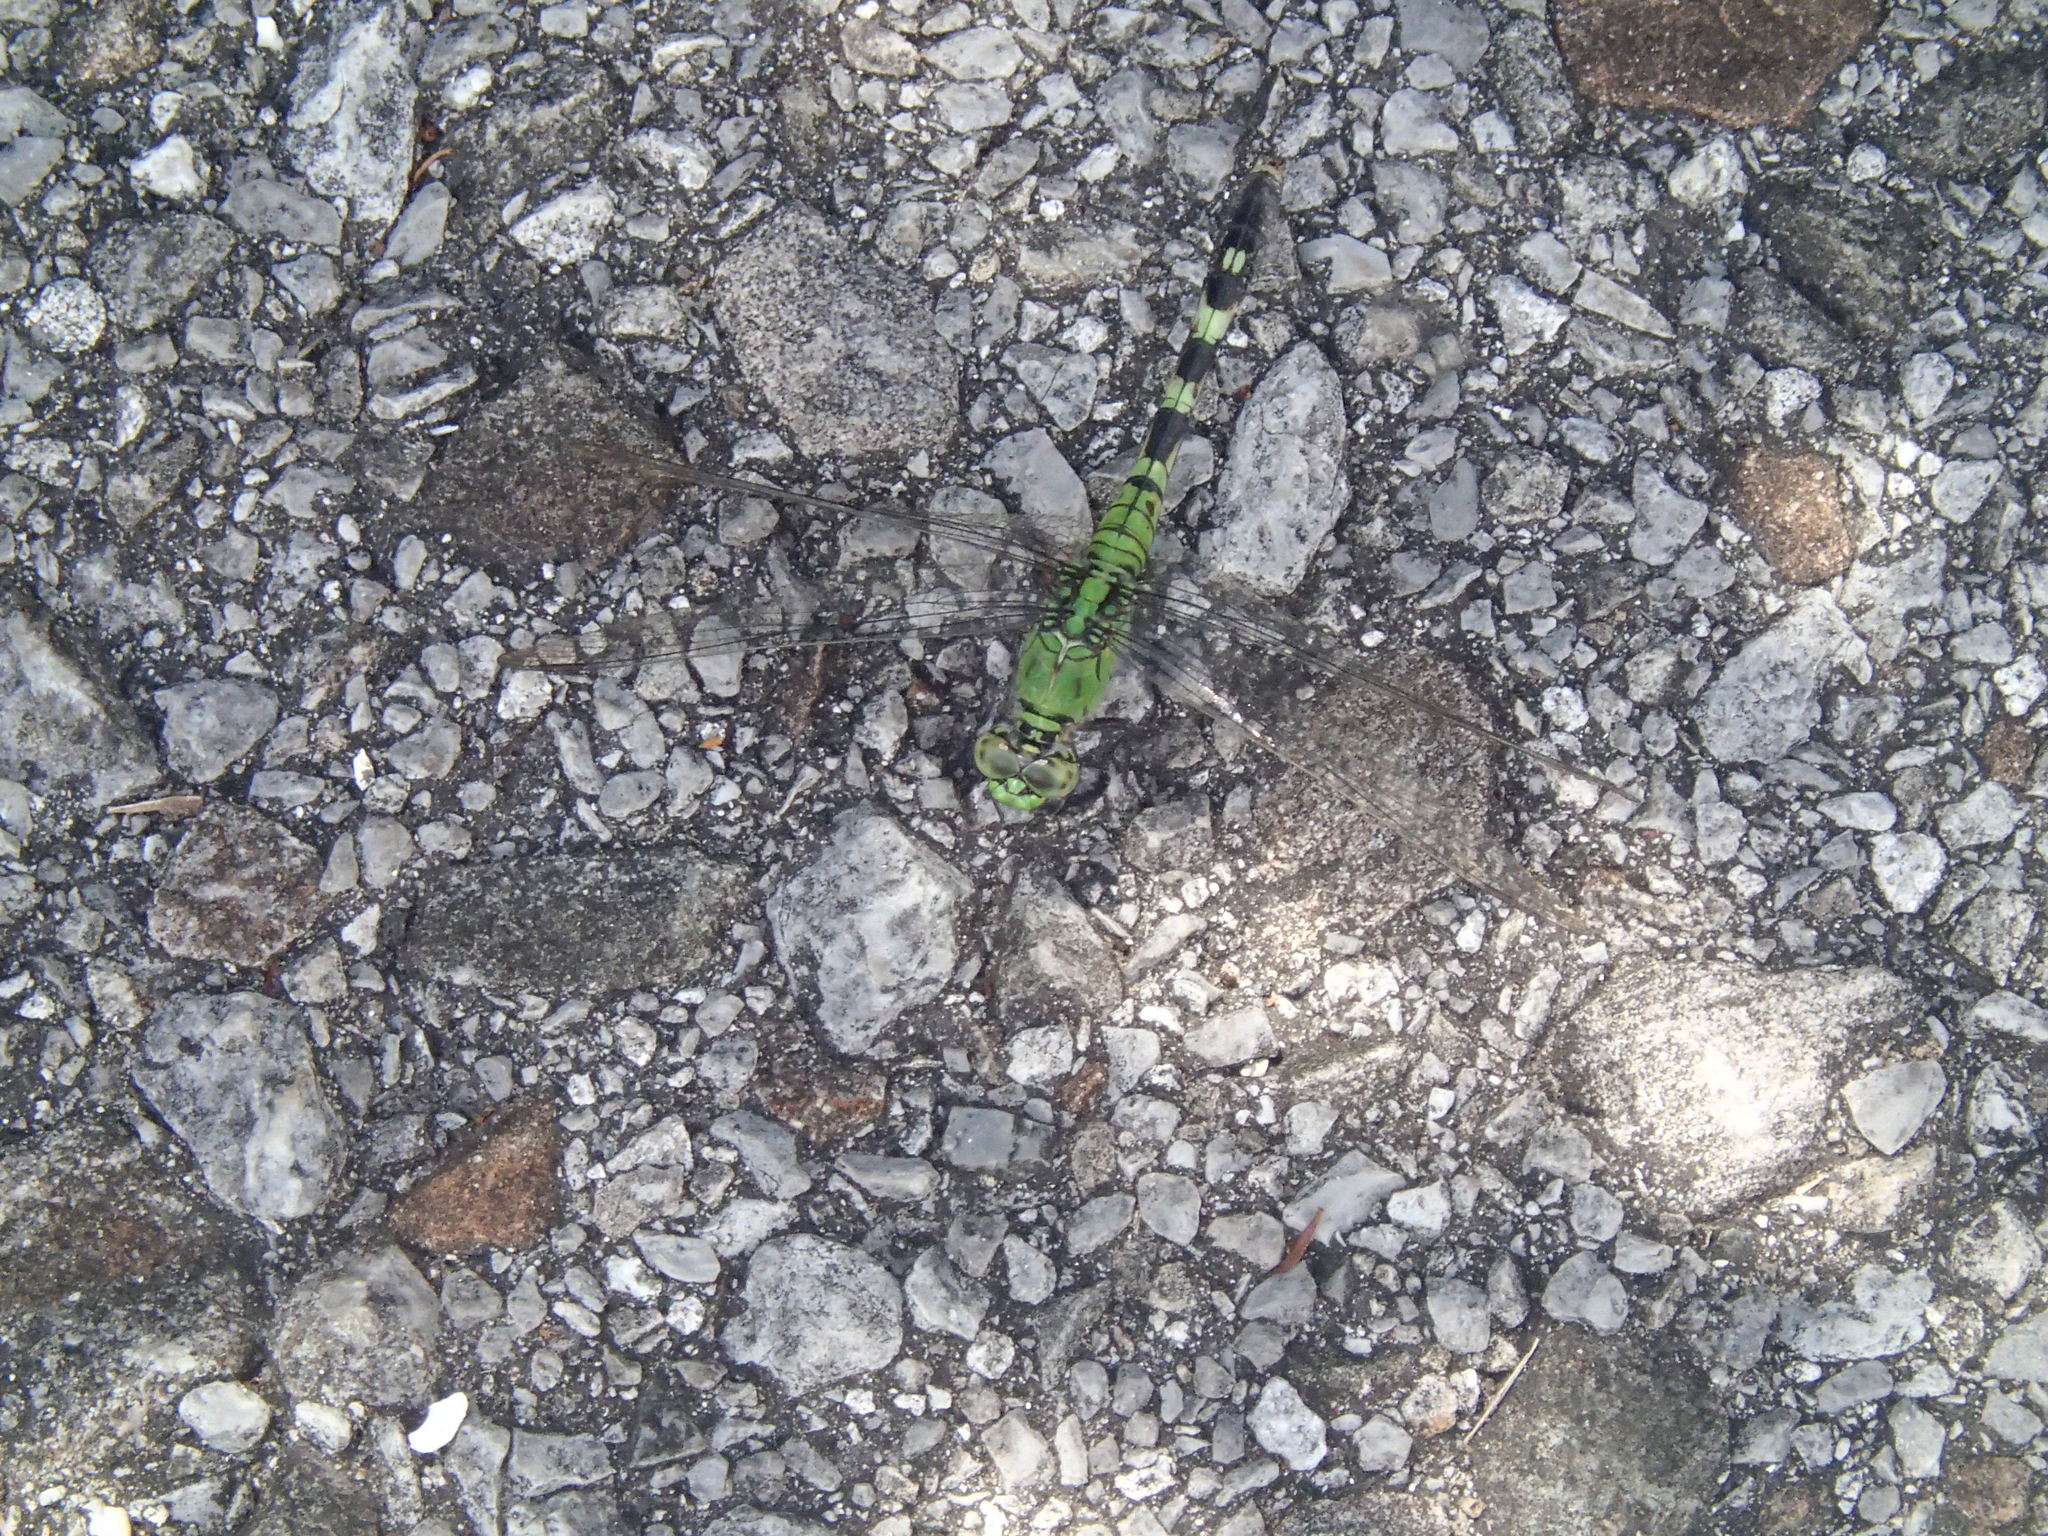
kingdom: Animalia
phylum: Arthropoda
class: Insecta
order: Odonata
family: Libellulidae
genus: Erythemis
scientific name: Erythemis simplicicollis
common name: Eastern pondhawk
